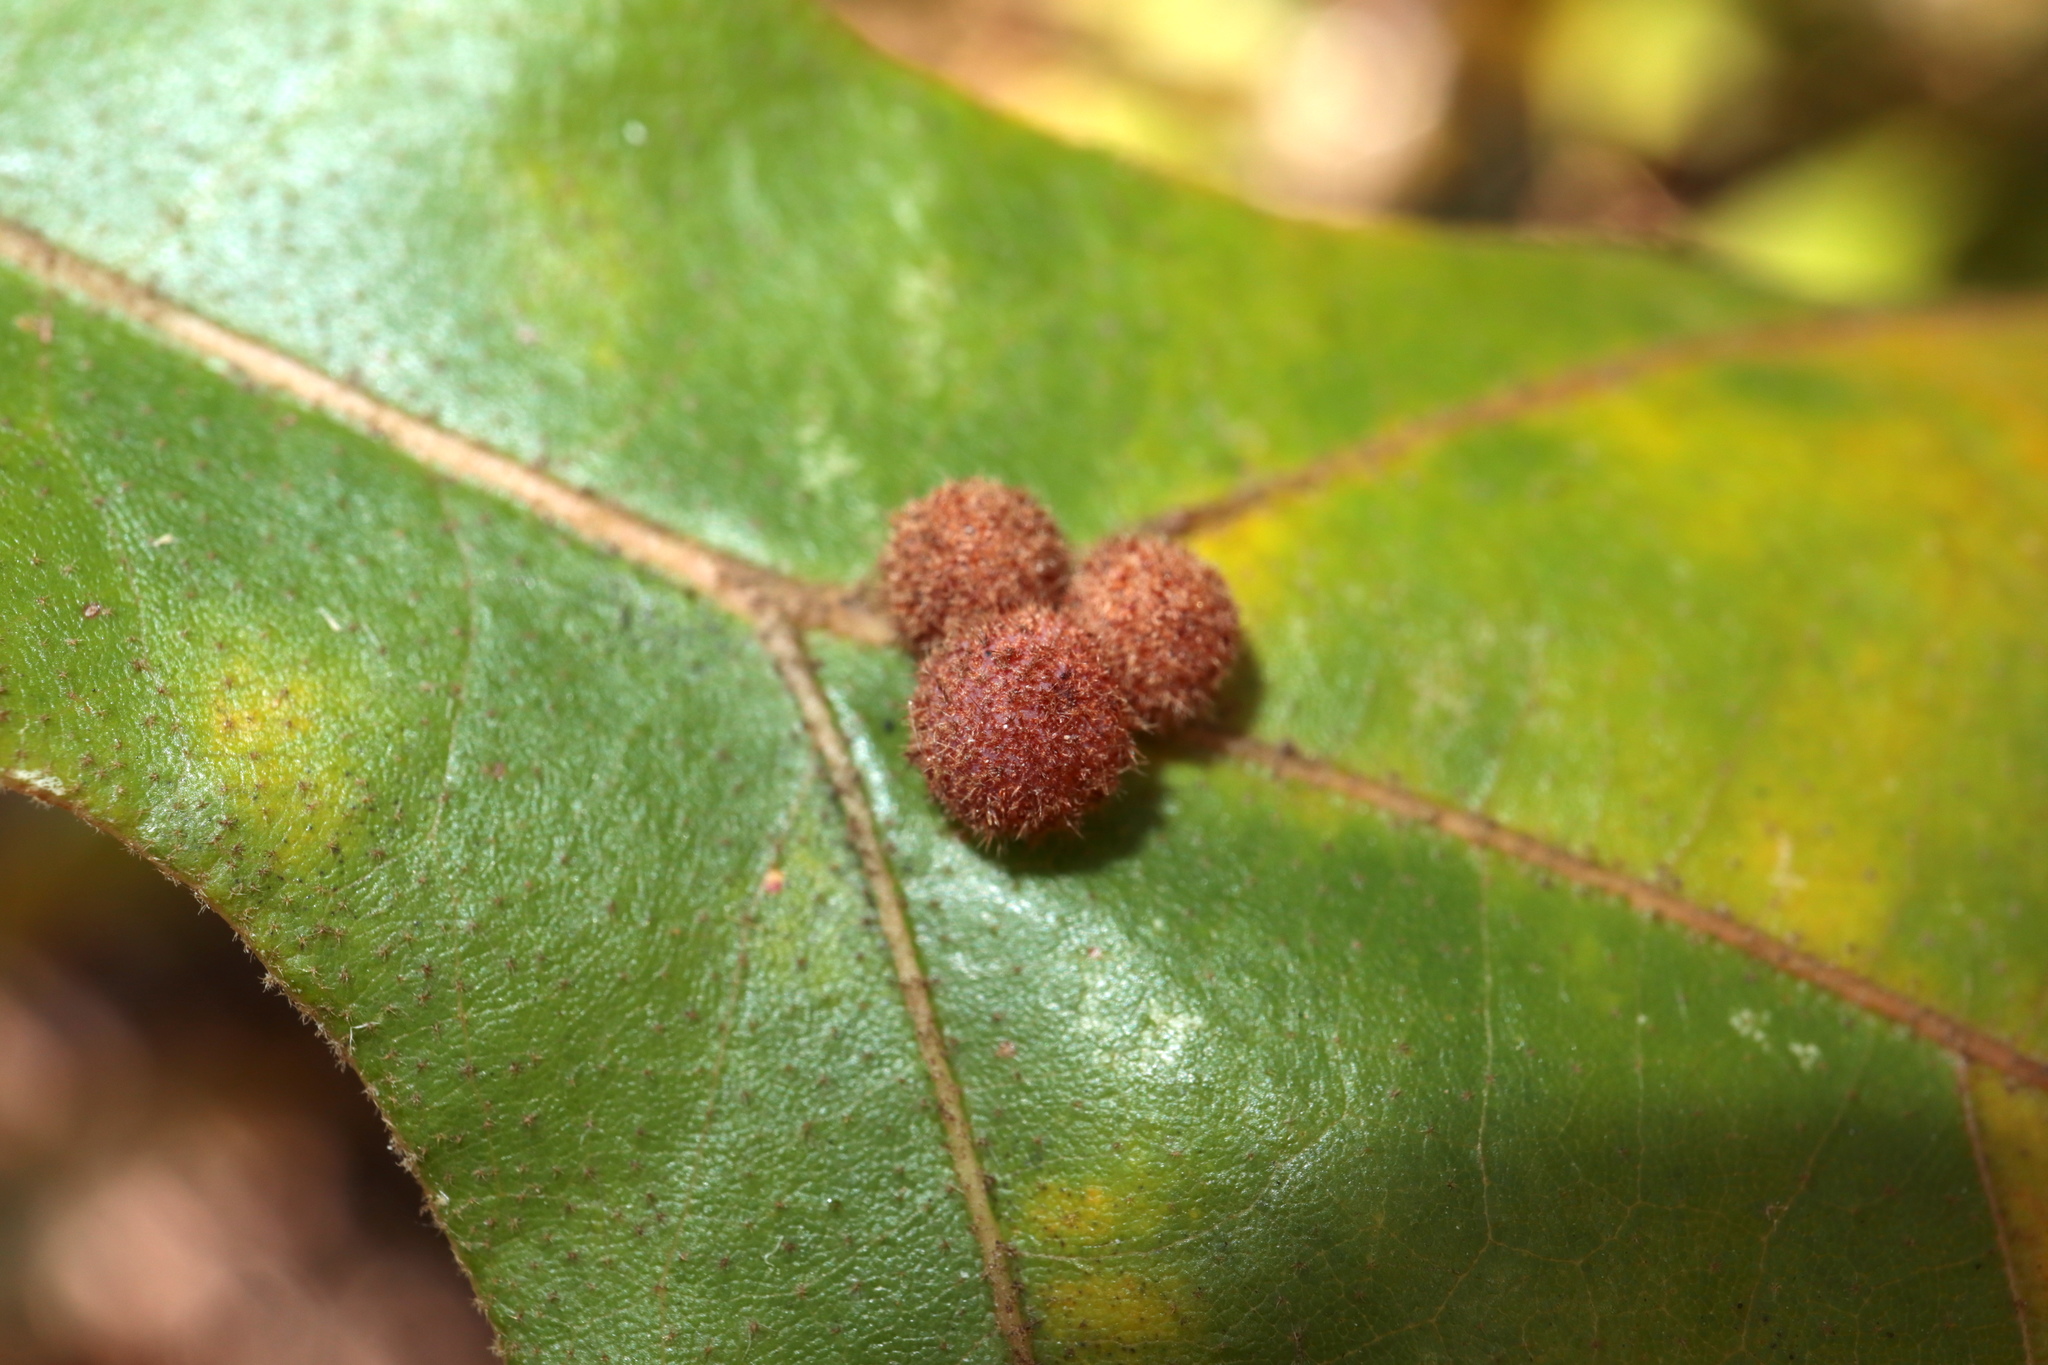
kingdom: Animalia
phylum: Arthropoda
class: Insecta
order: Hymenoptera
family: Cynipidae
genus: Biorhiza
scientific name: Biorhiza Sphaeroteras carolina
